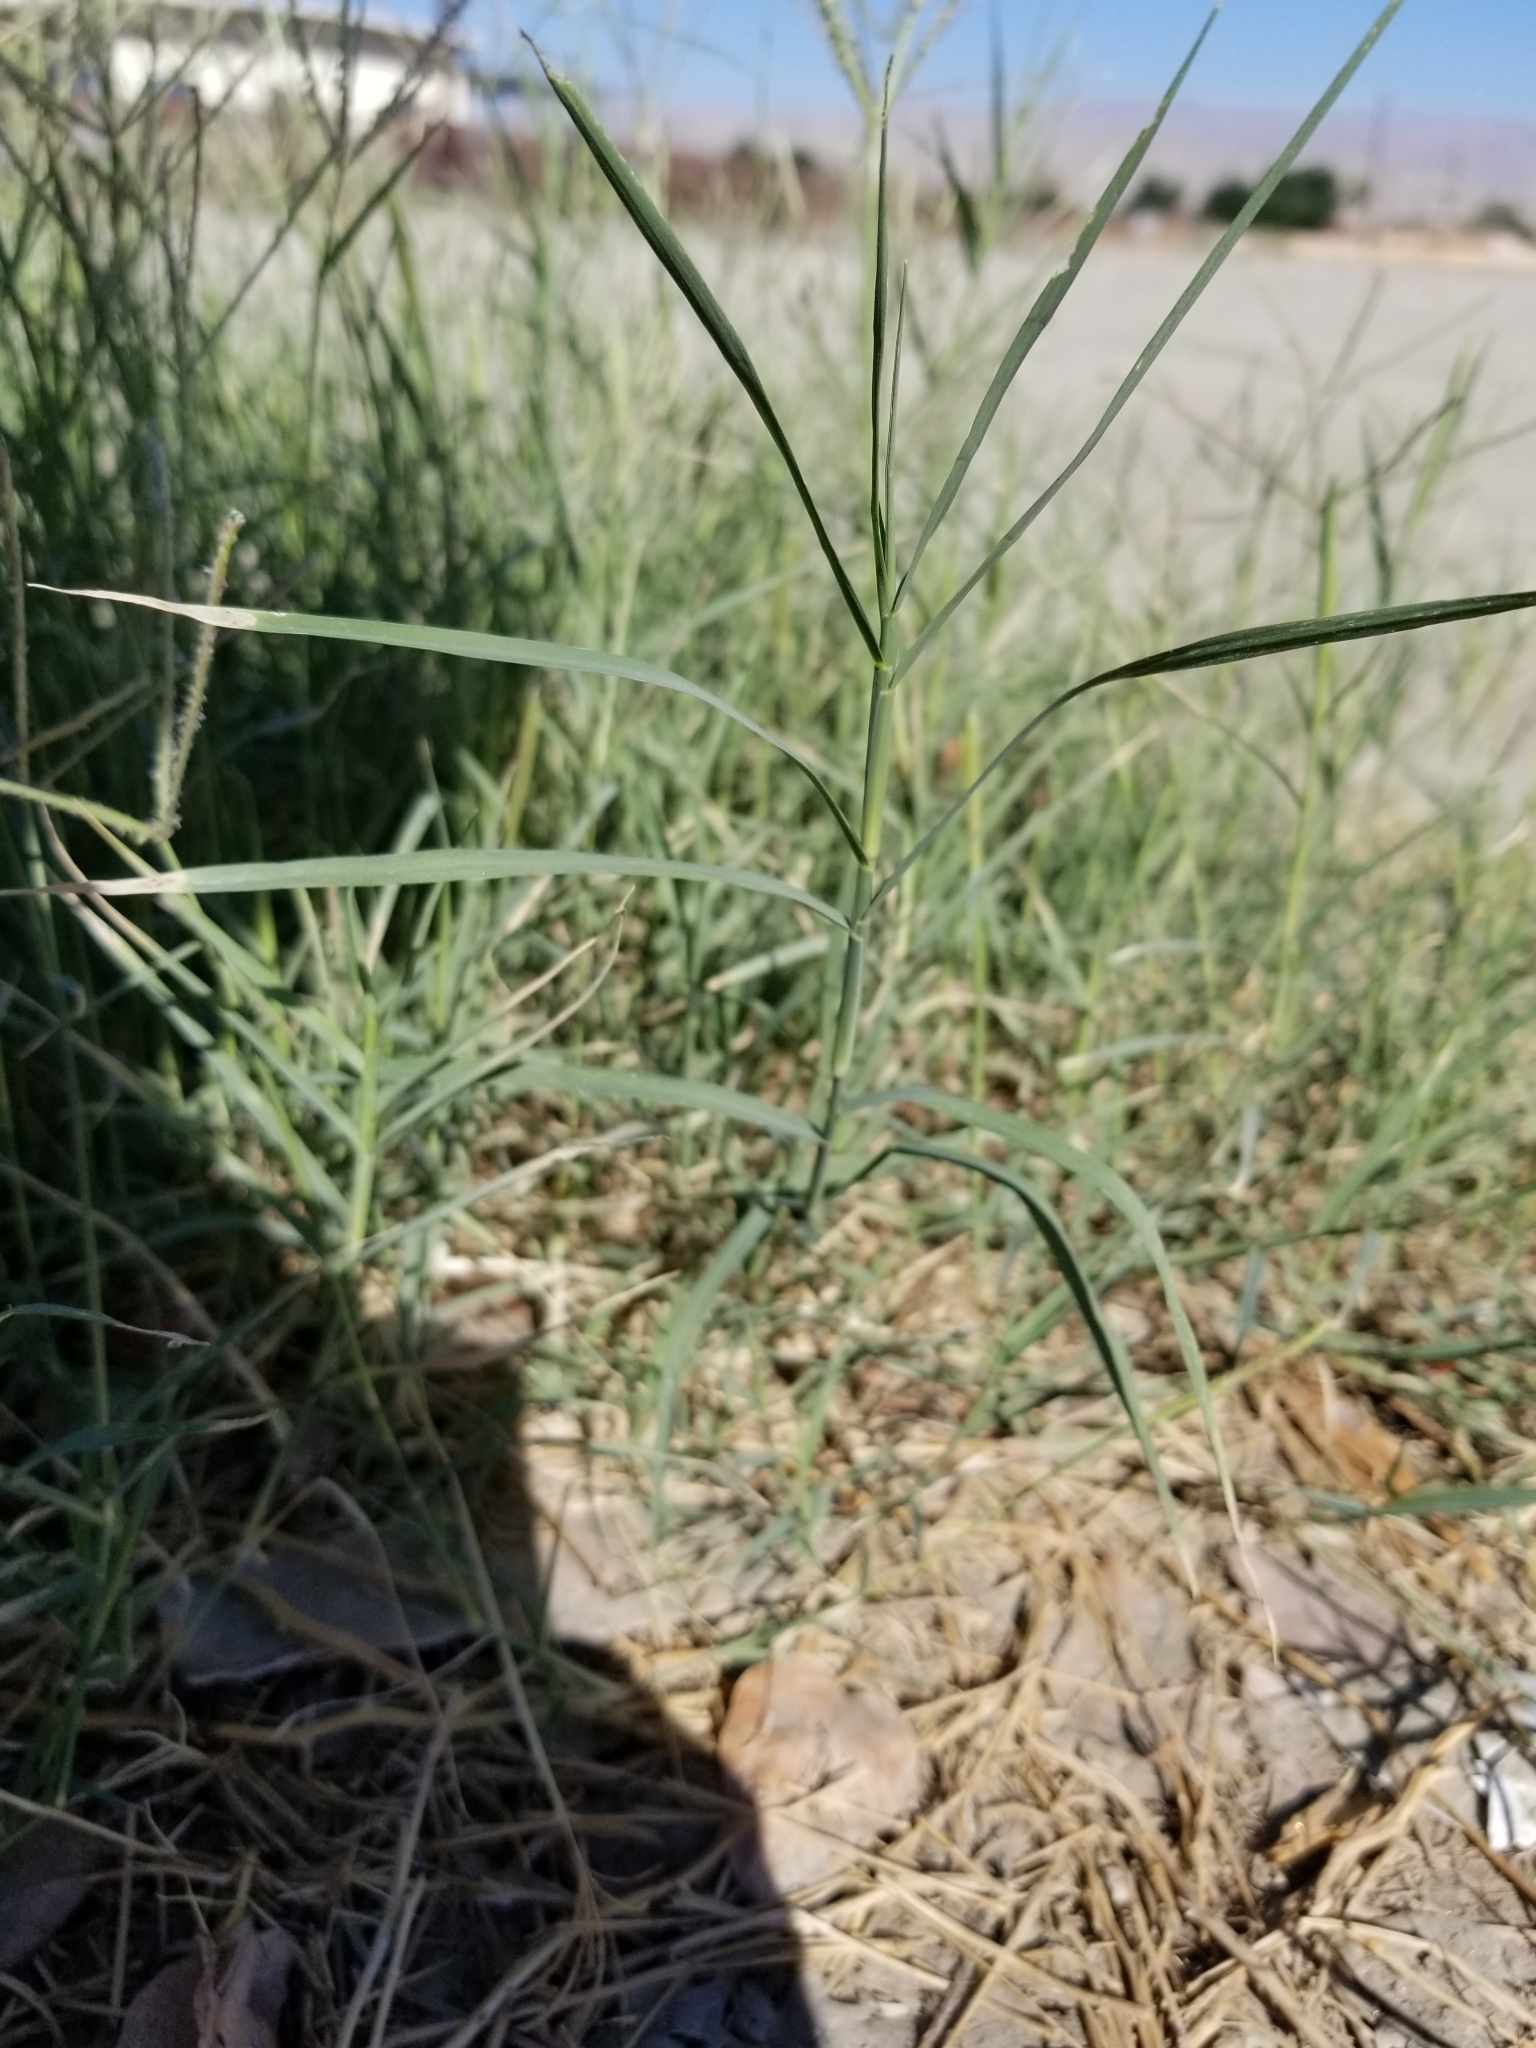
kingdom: Plantae
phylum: Tracheophyta
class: Liliopsida
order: Poales
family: Poaceae
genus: Cynodon
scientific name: Cynodon dactylon
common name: Bermuda grass
